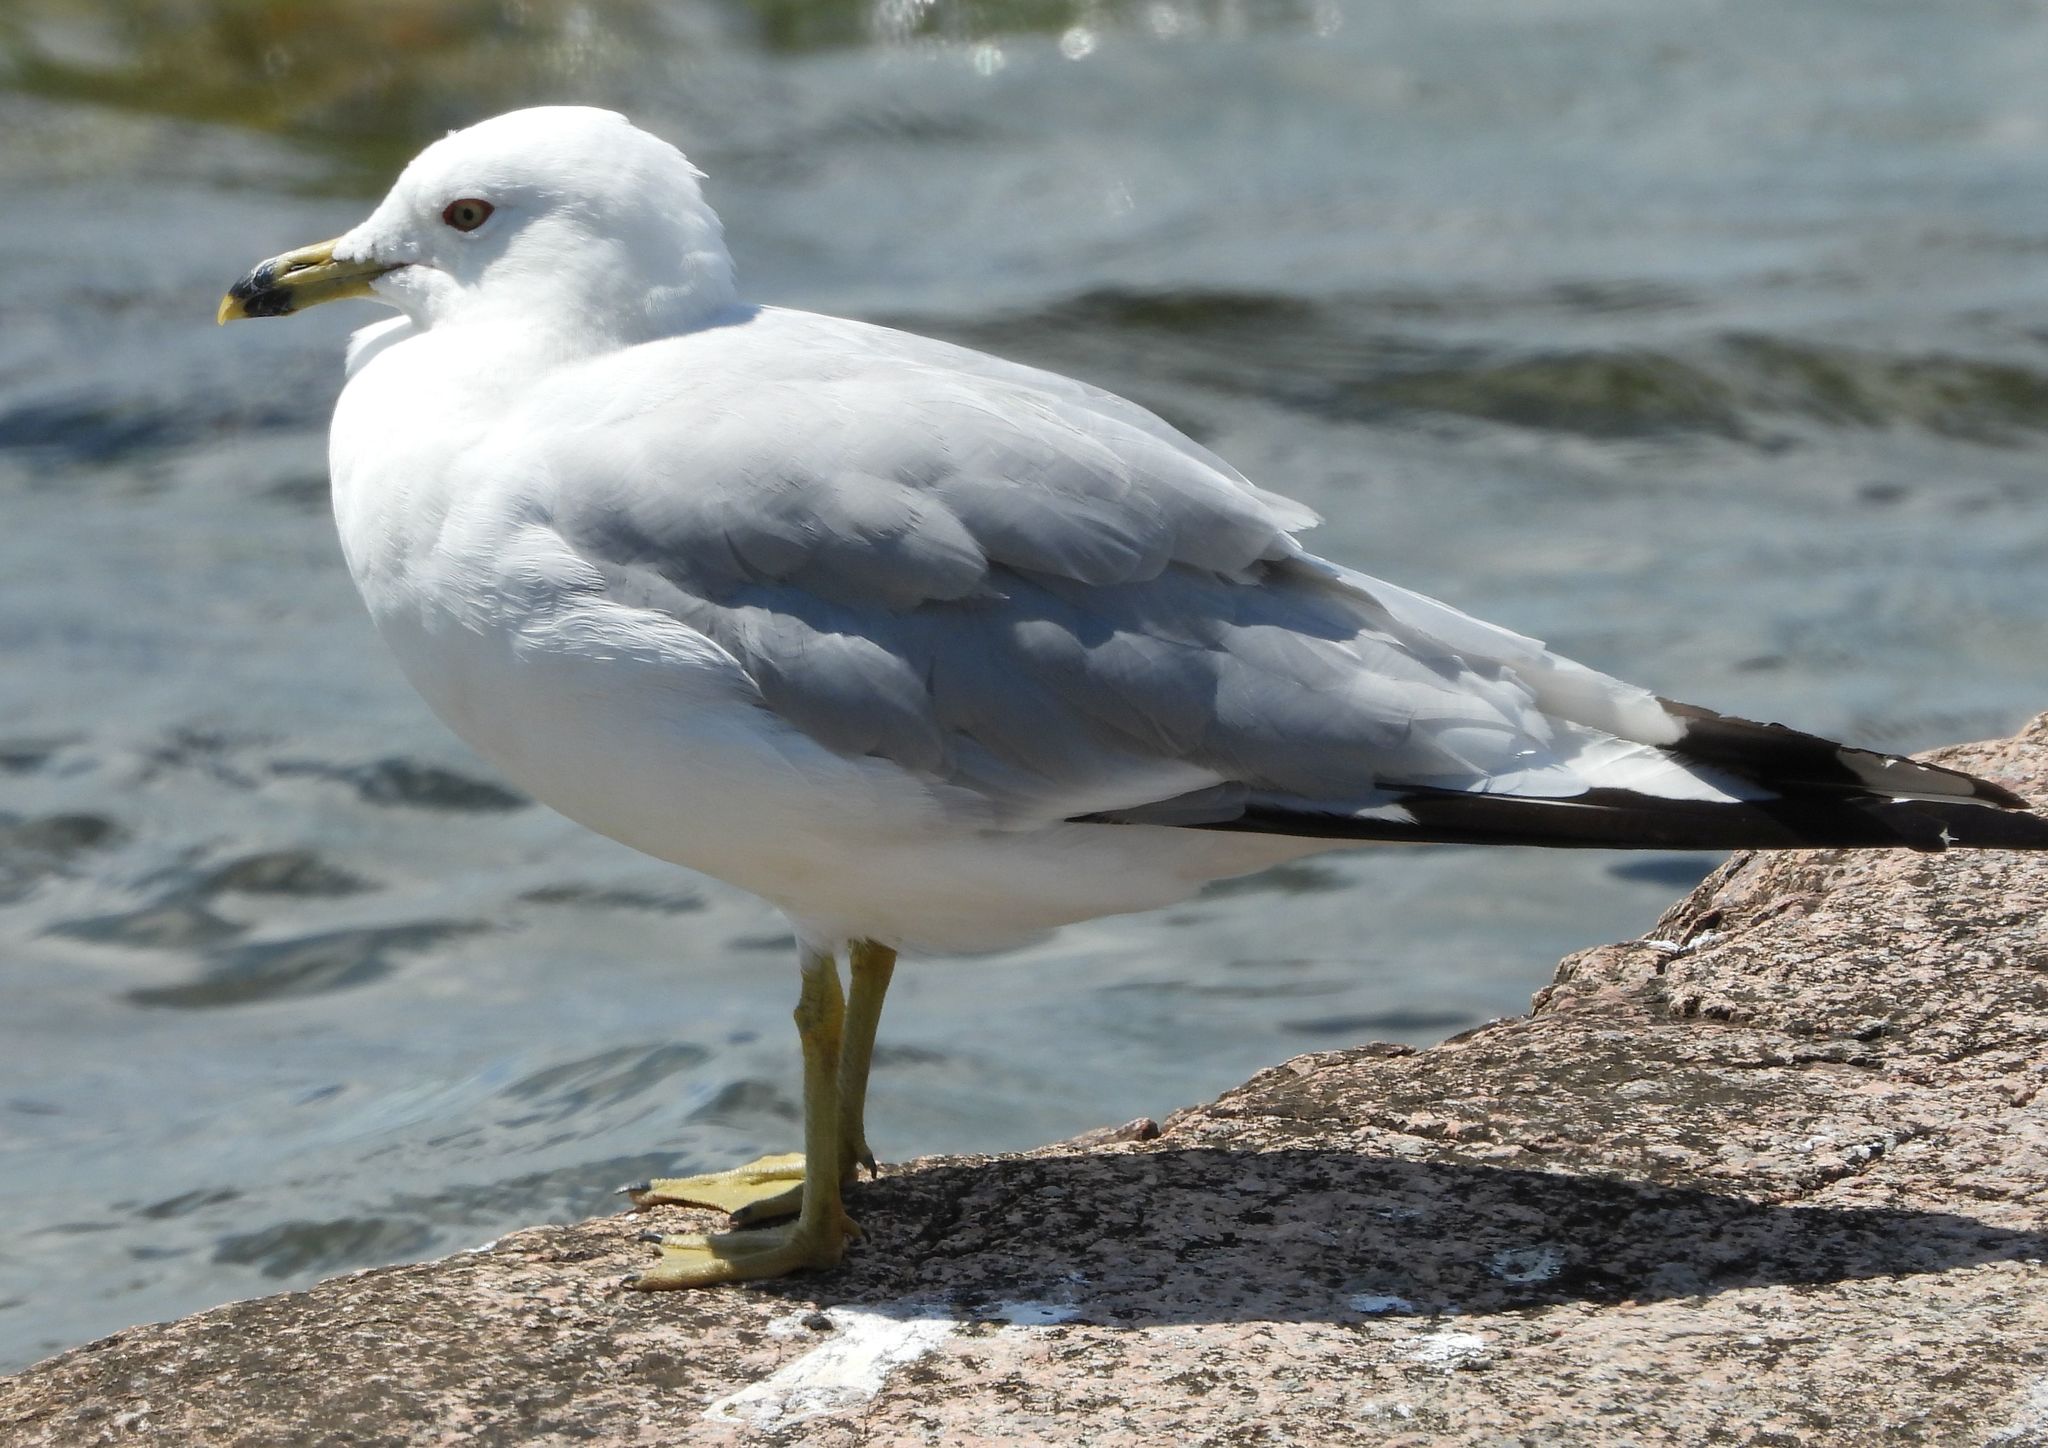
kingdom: Animalia
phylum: Chordata
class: Aves
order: Charadriiformes
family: Laridae
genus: Larus
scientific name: Larus delawarensis
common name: Ring-billed gull
